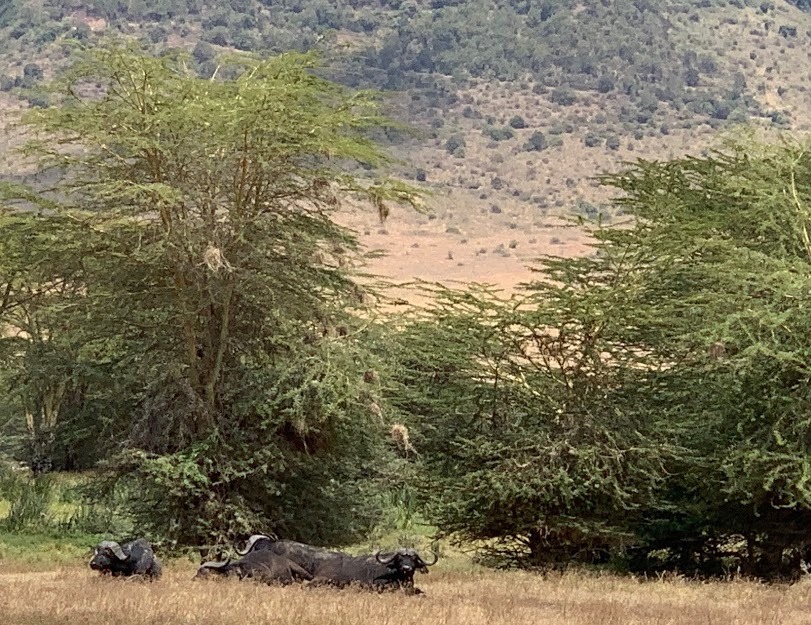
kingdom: Animalia
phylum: Chordata
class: Mammalia
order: Artiodactyla
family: Bovidae
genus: Syncerus
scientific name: Syncerus caffer
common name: African buffalo
